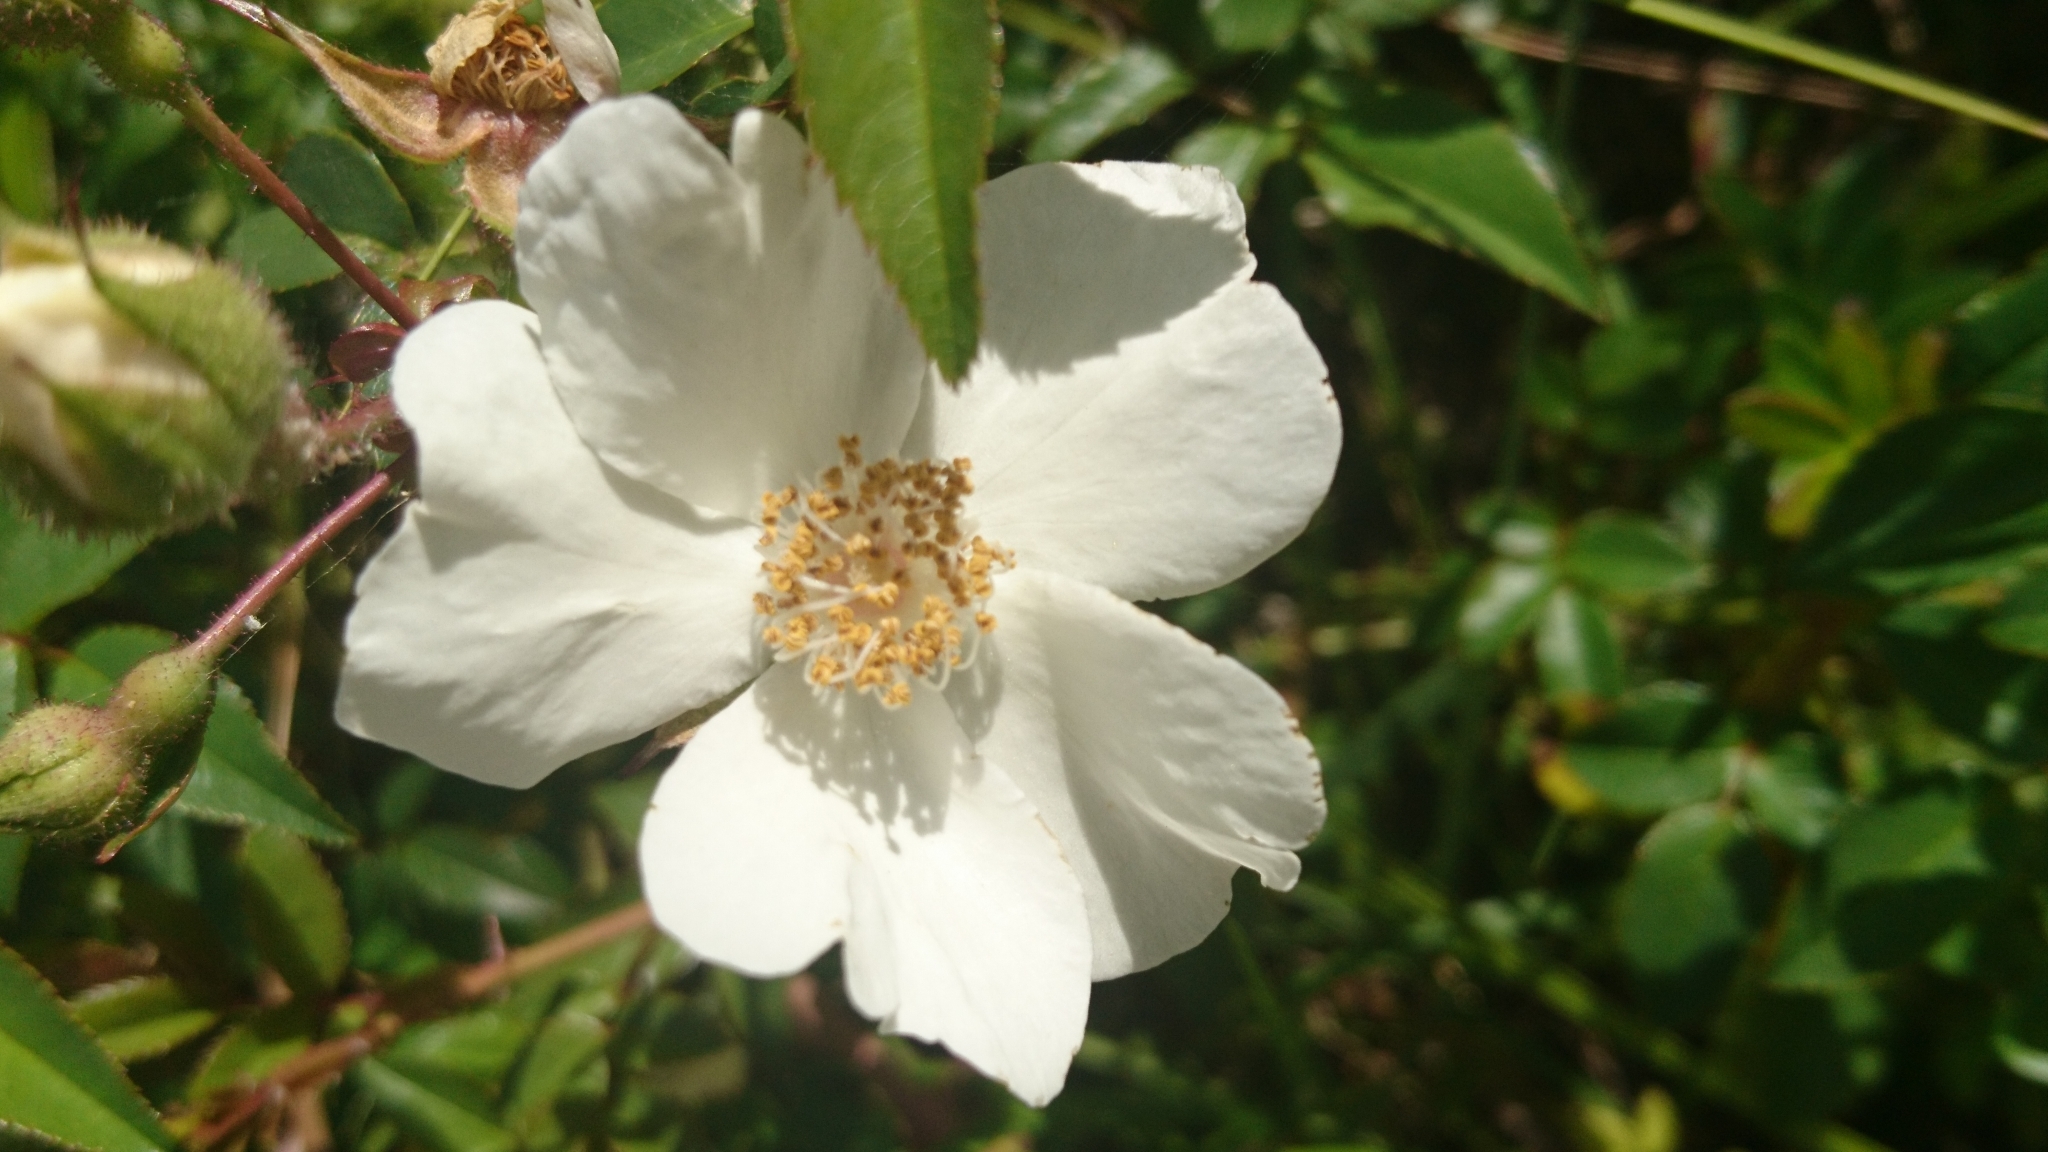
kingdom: Plantae
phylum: Tracheophyta
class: Magnoliopsida
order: Rosales
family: Rosaceae
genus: Rosa
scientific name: Rosa sempervirens
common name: Evergreen rose
